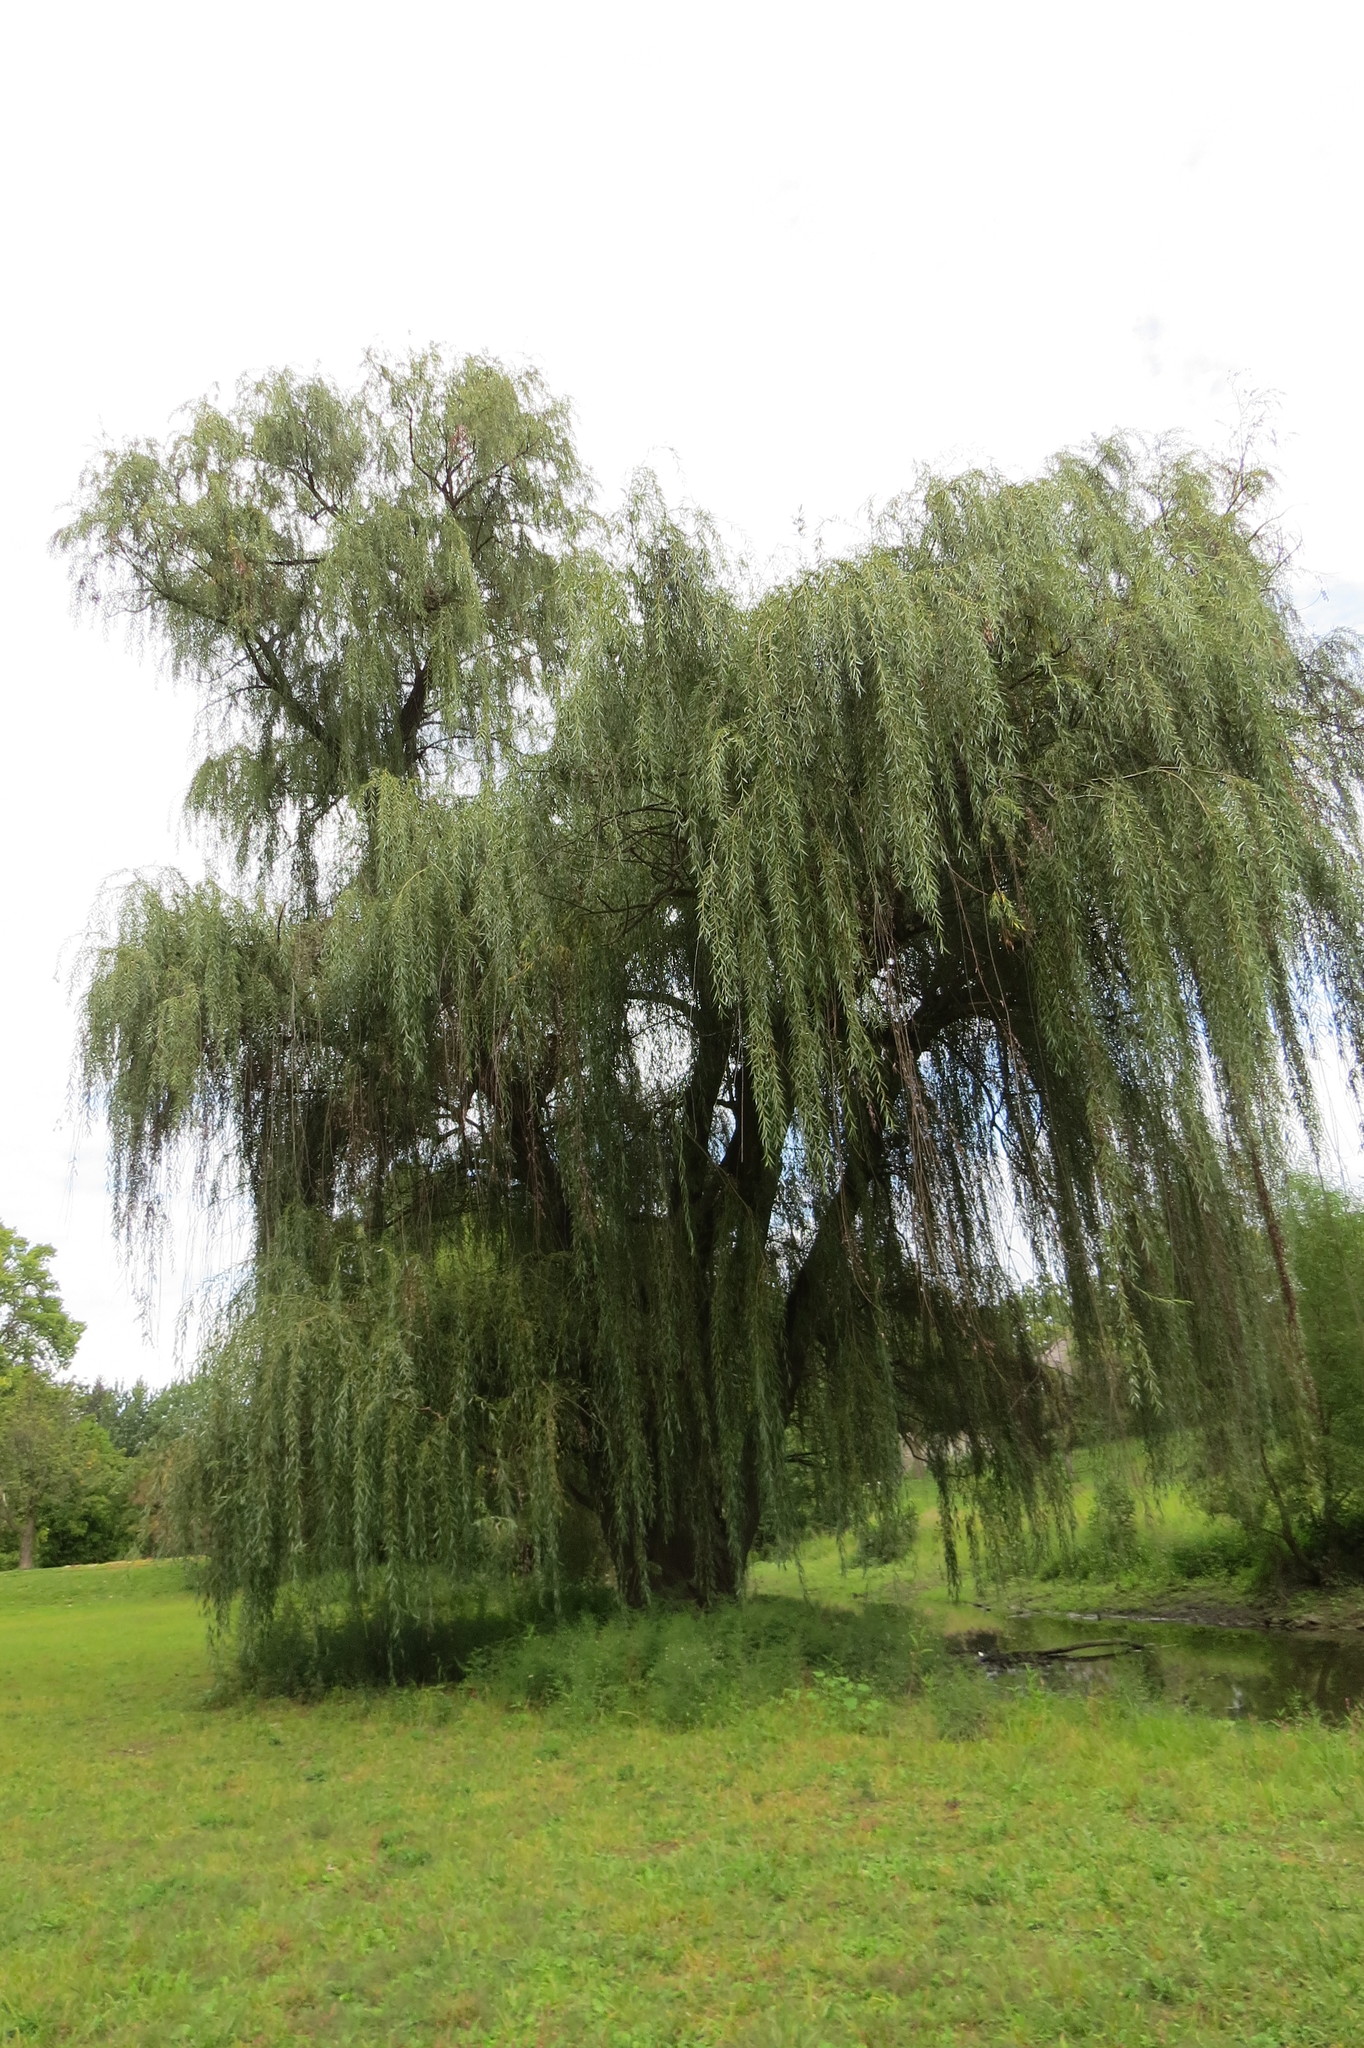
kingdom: Plantae
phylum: Tracheophyta
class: Magnoliopsida
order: Malpighiales
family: Salicaceae
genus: Salix
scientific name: Salix babylonica
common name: Weeping willow
